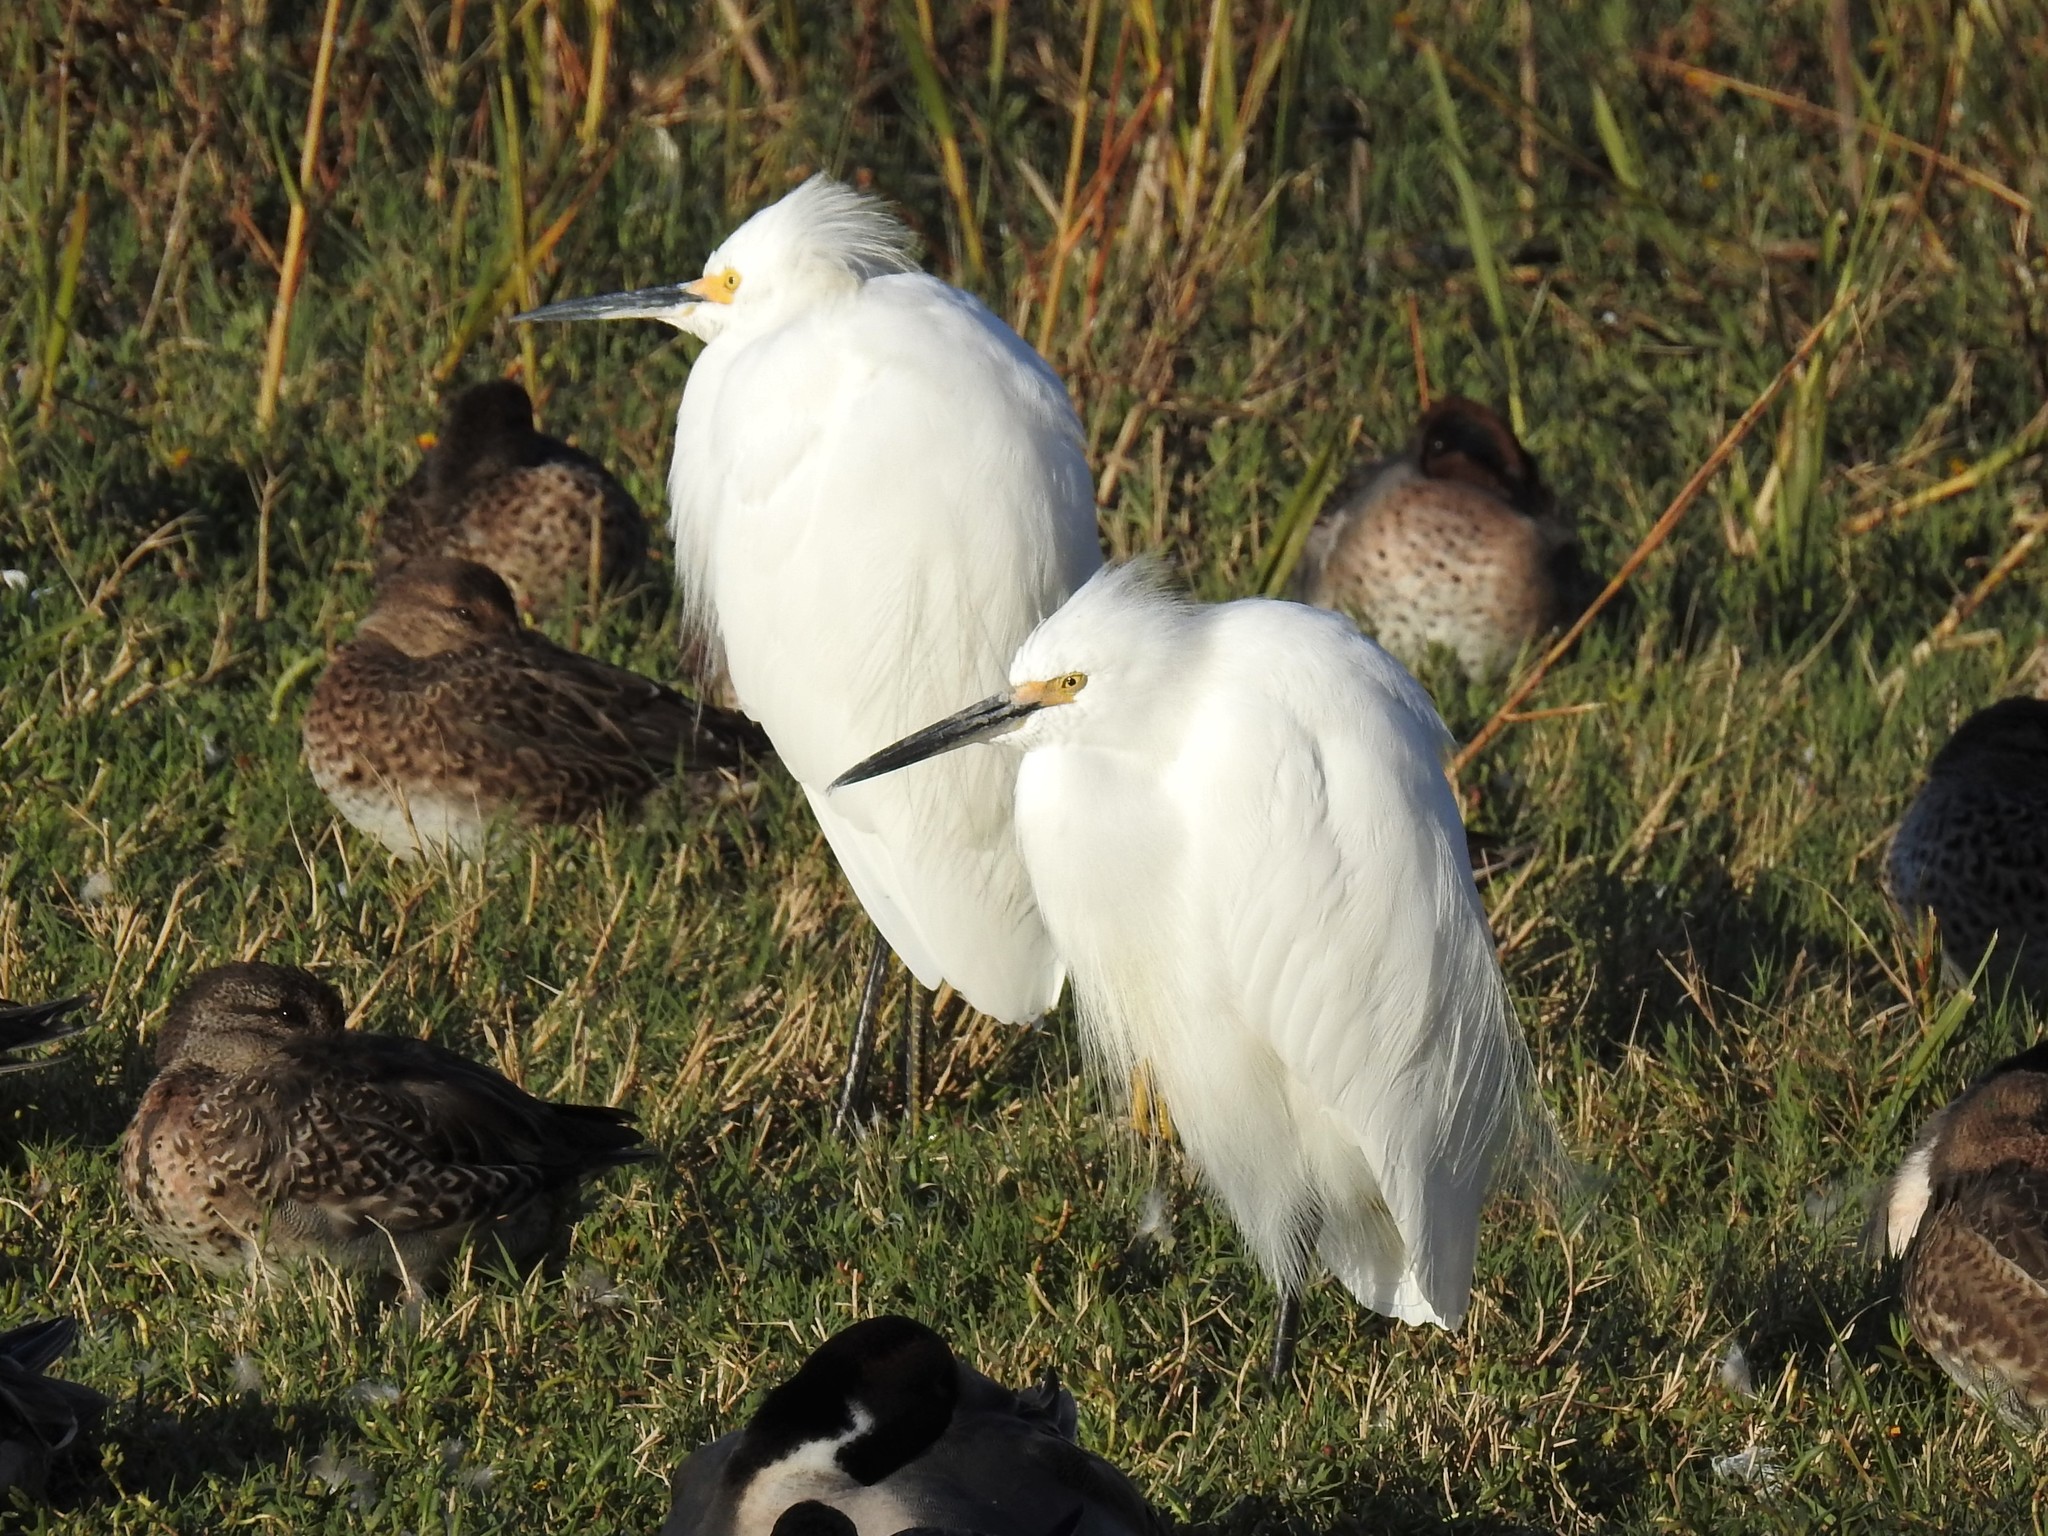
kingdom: Animalia
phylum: Chordata
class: Aves
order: Pelecaniformes
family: Ardeidae
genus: Egretta
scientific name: Egretta thula
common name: Snowy egret
